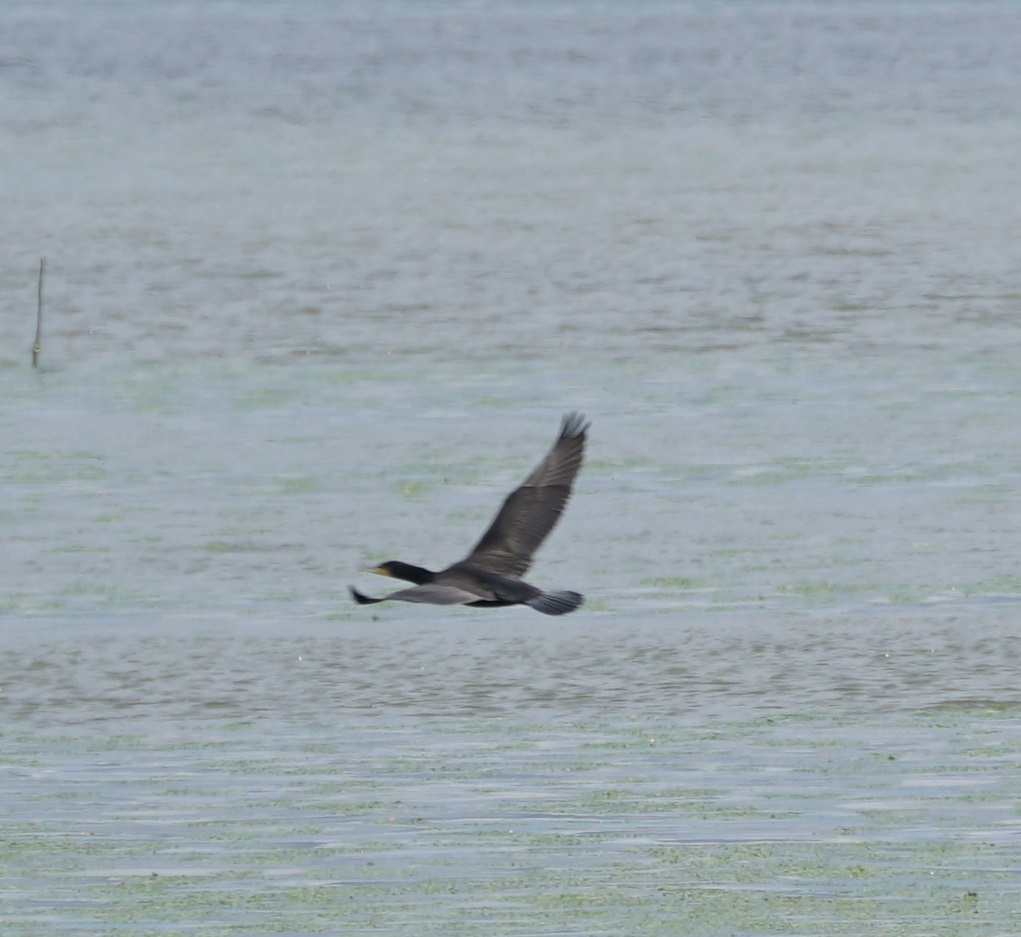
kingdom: Animalia
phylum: Chordata
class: Aves
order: Suliformes
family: Phalacrocoracidae
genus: Phalacrocorax
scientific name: Phalacrocorax carbo
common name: Great cormorant
